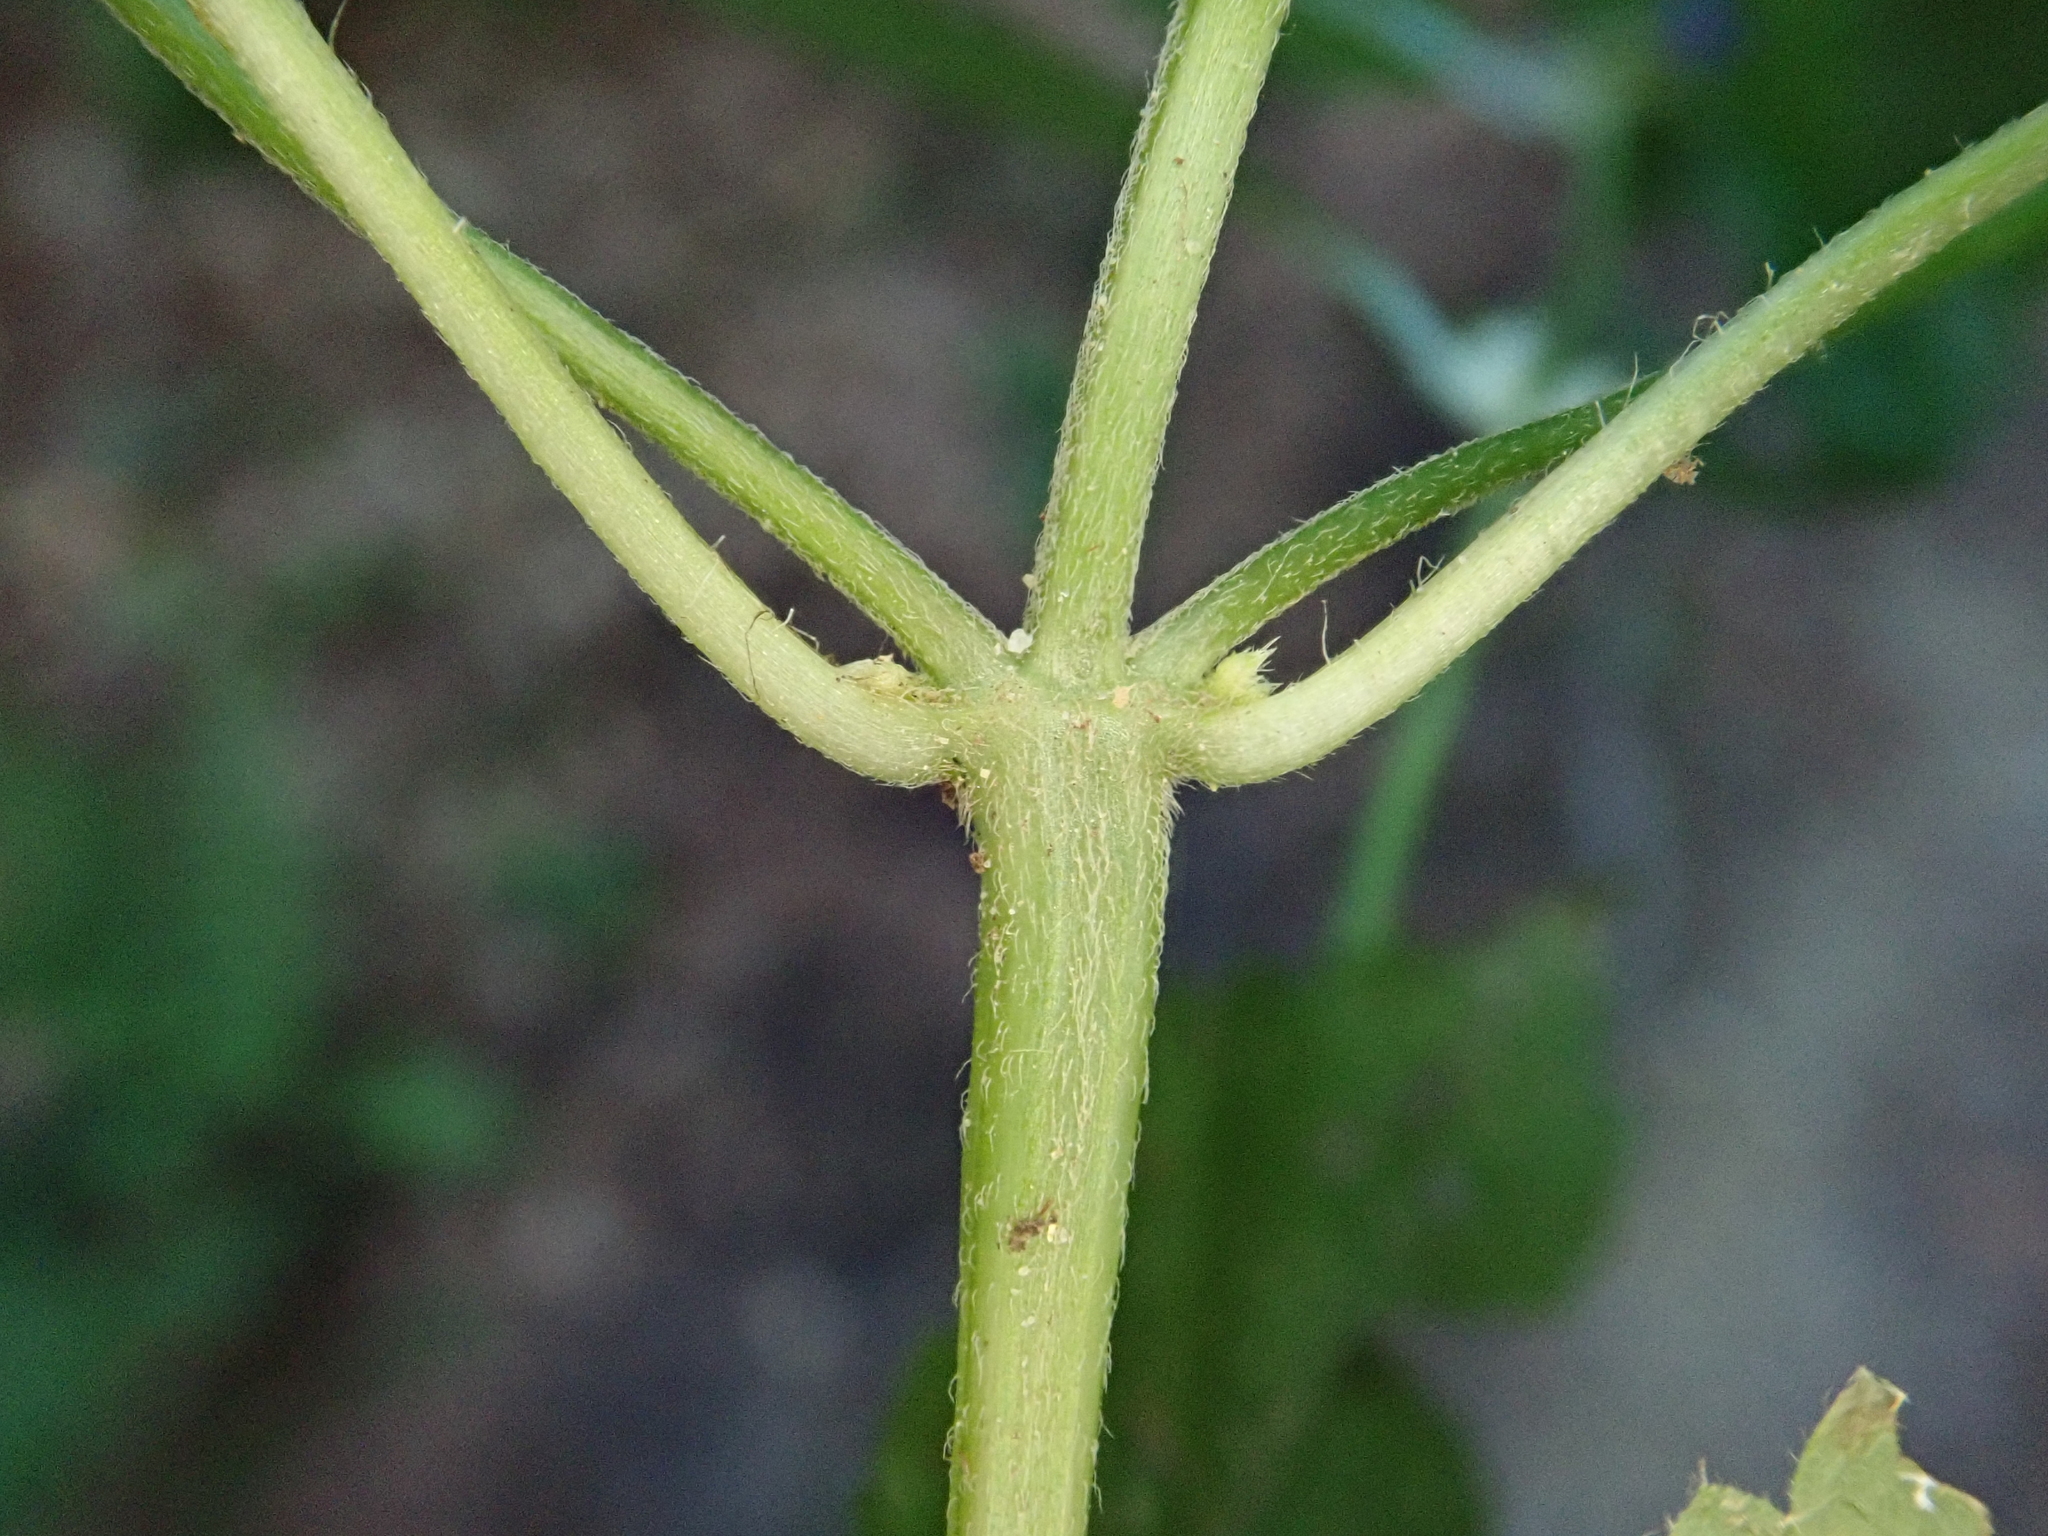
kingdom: Plantae
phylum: Tracheophyta
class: Magnoliopsida
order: Lamiales
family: Lamiaceae
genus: Galeopsis
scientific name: Galeopsis pubescens
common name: Downy hemp-nettle
